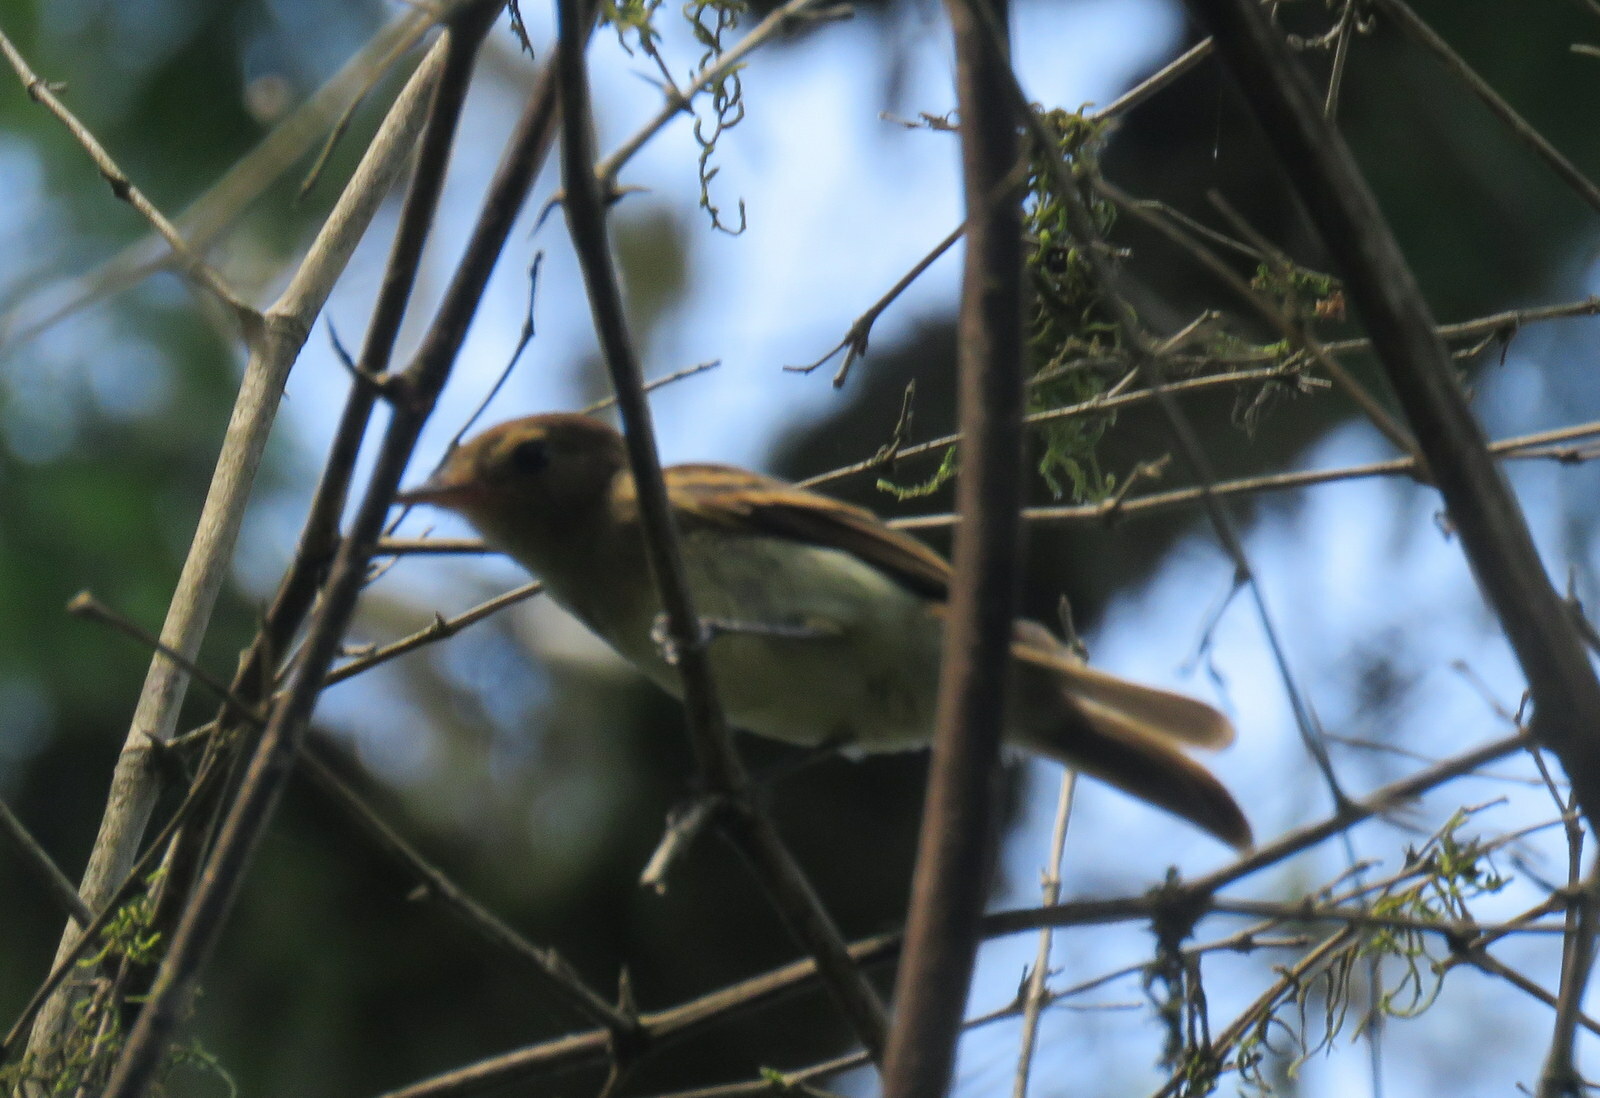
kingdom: Animalia
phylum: Chordata
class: Aves
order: Passeriformes
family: Tyrannidae
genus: Cnemotriccus
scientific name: Cnemotriccus fuscatus
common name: Fuscous flycatcher
